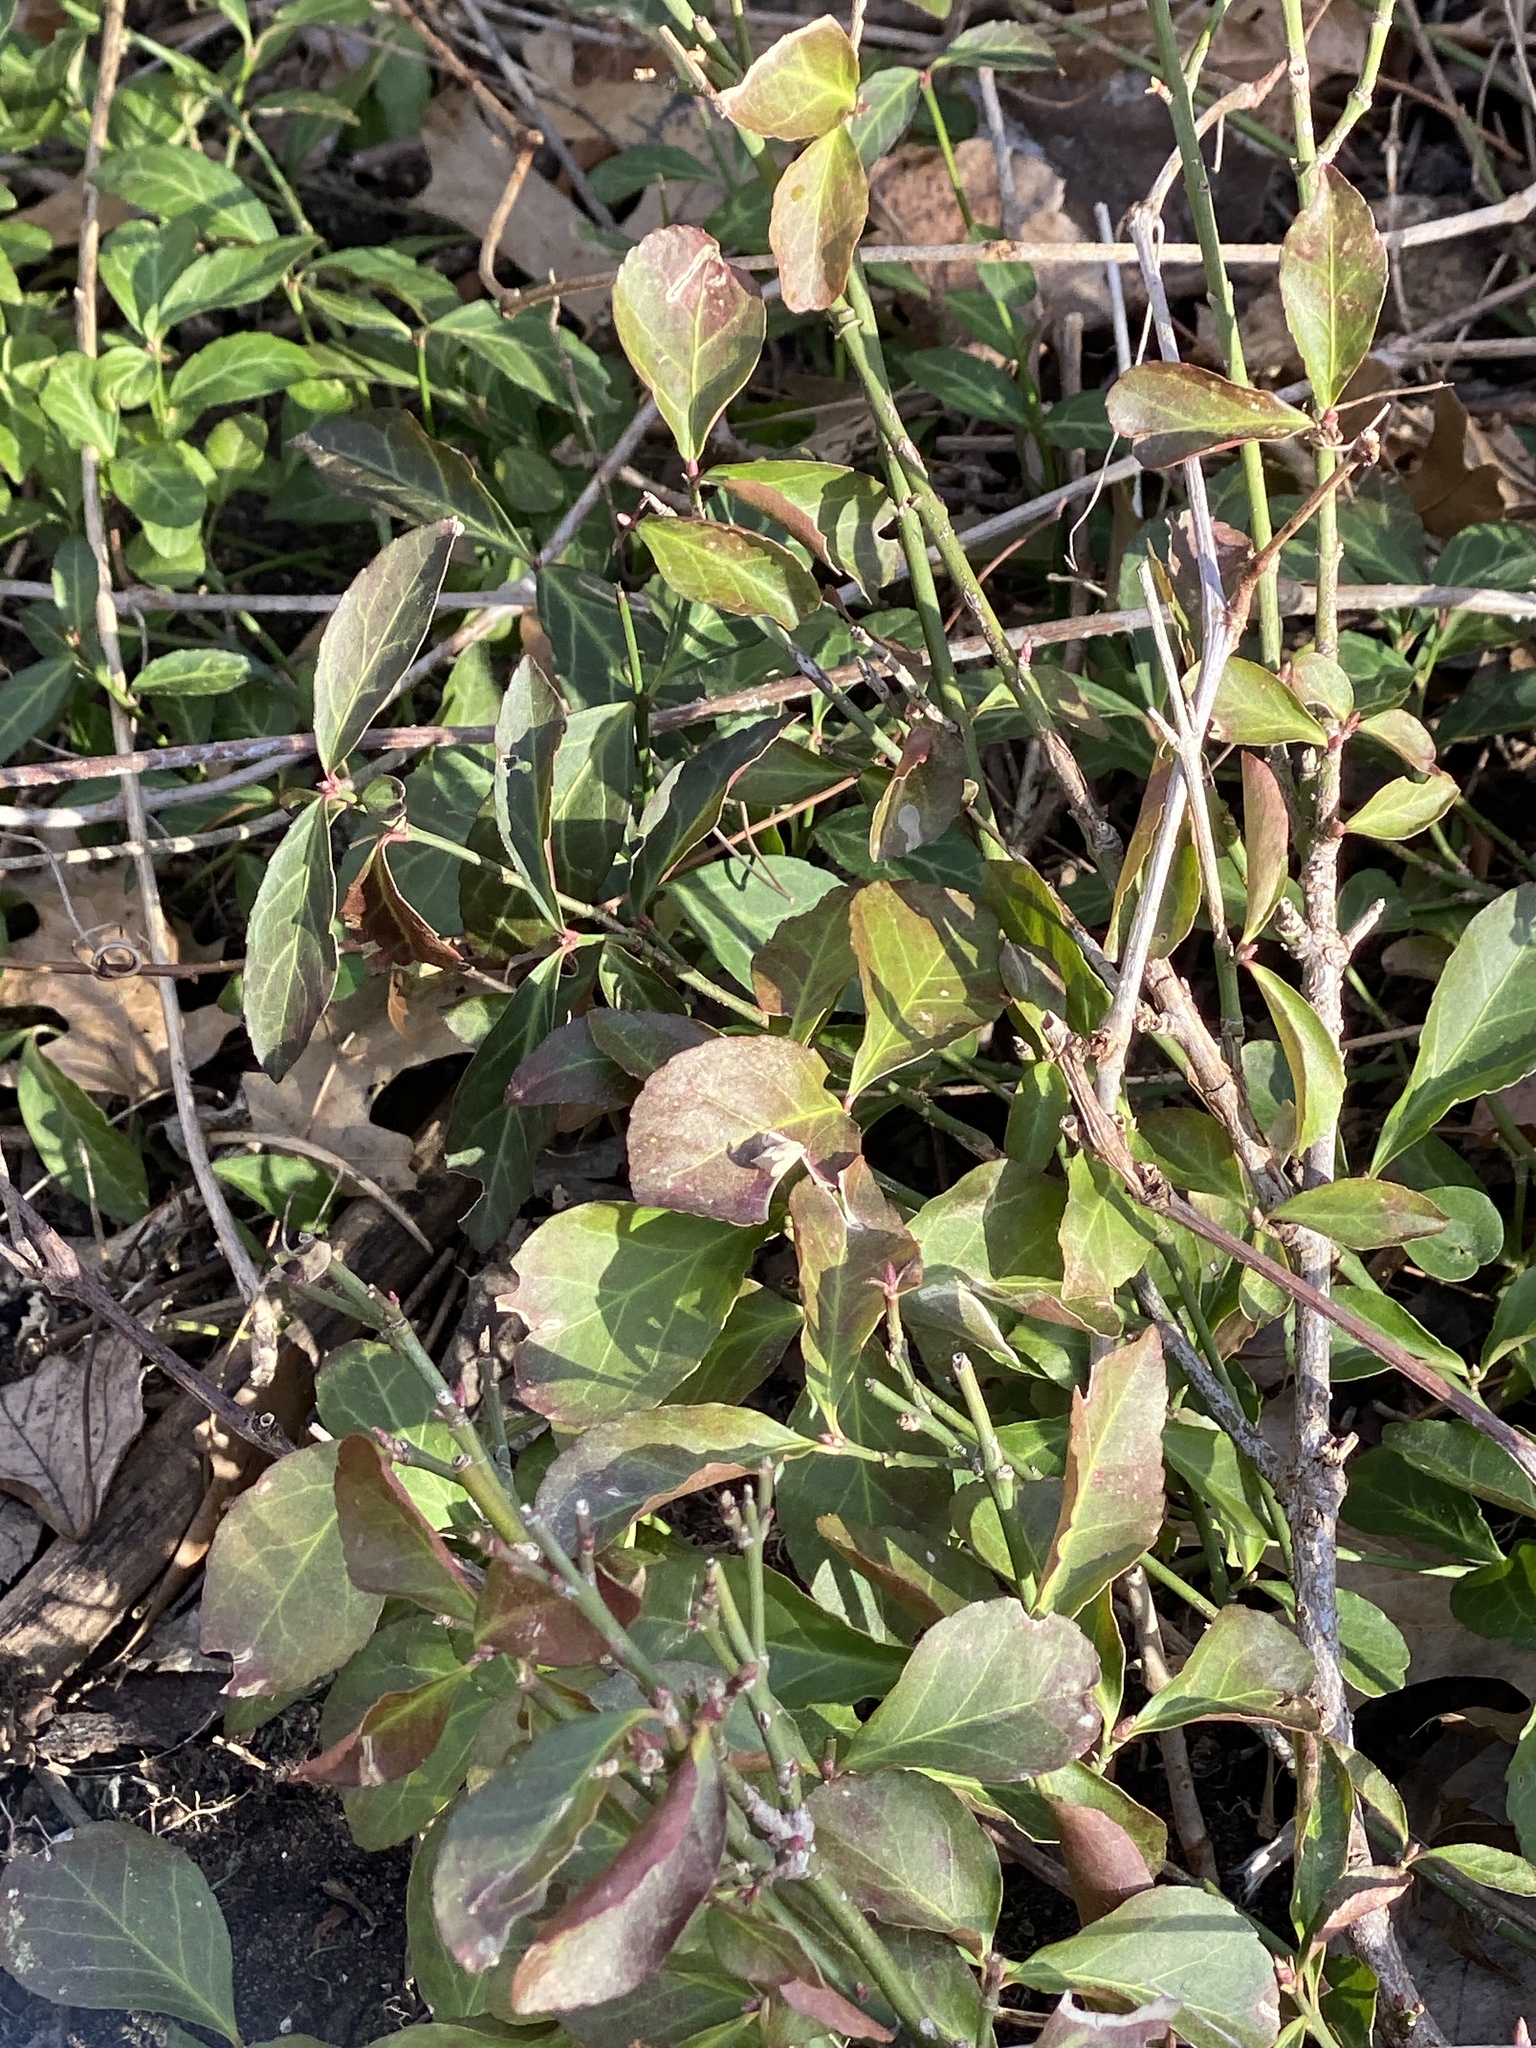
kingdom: Plantae
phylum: Tracheophyta
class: Magnoliopsida
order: Celastrales
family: Celastraceae
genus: Euonymus
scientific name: Euonymus fortunei
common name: Climbing euonymus
